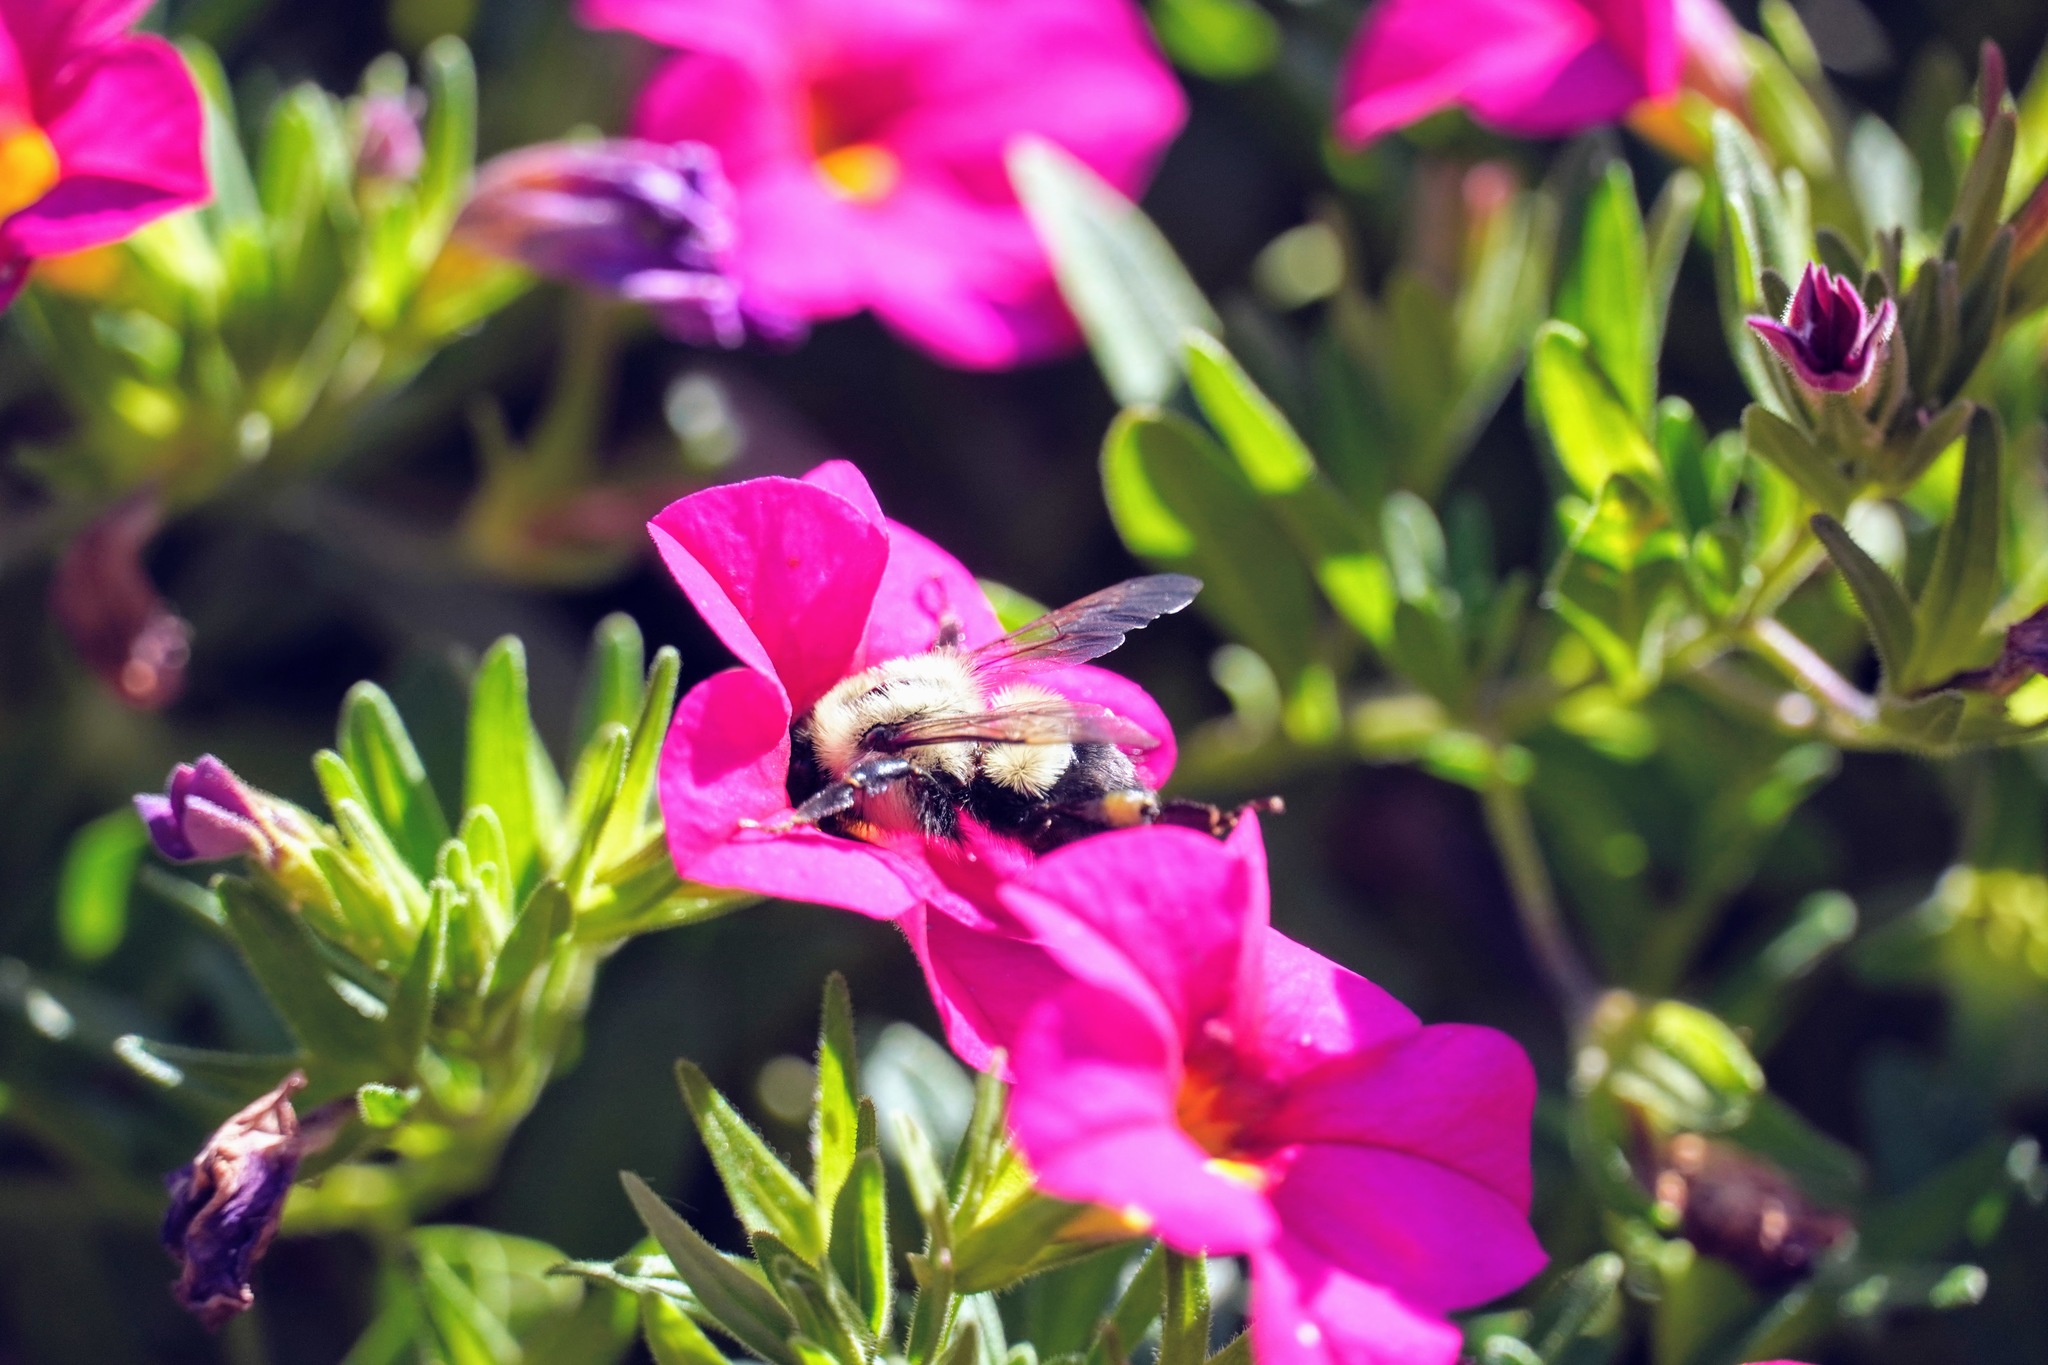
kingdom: Animalia
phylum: Arthropoda
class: Insecta
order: Hymenoptera
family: Apidae
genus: Bombus
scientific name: Bombus impatiens
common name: Common eastern bumble bee
